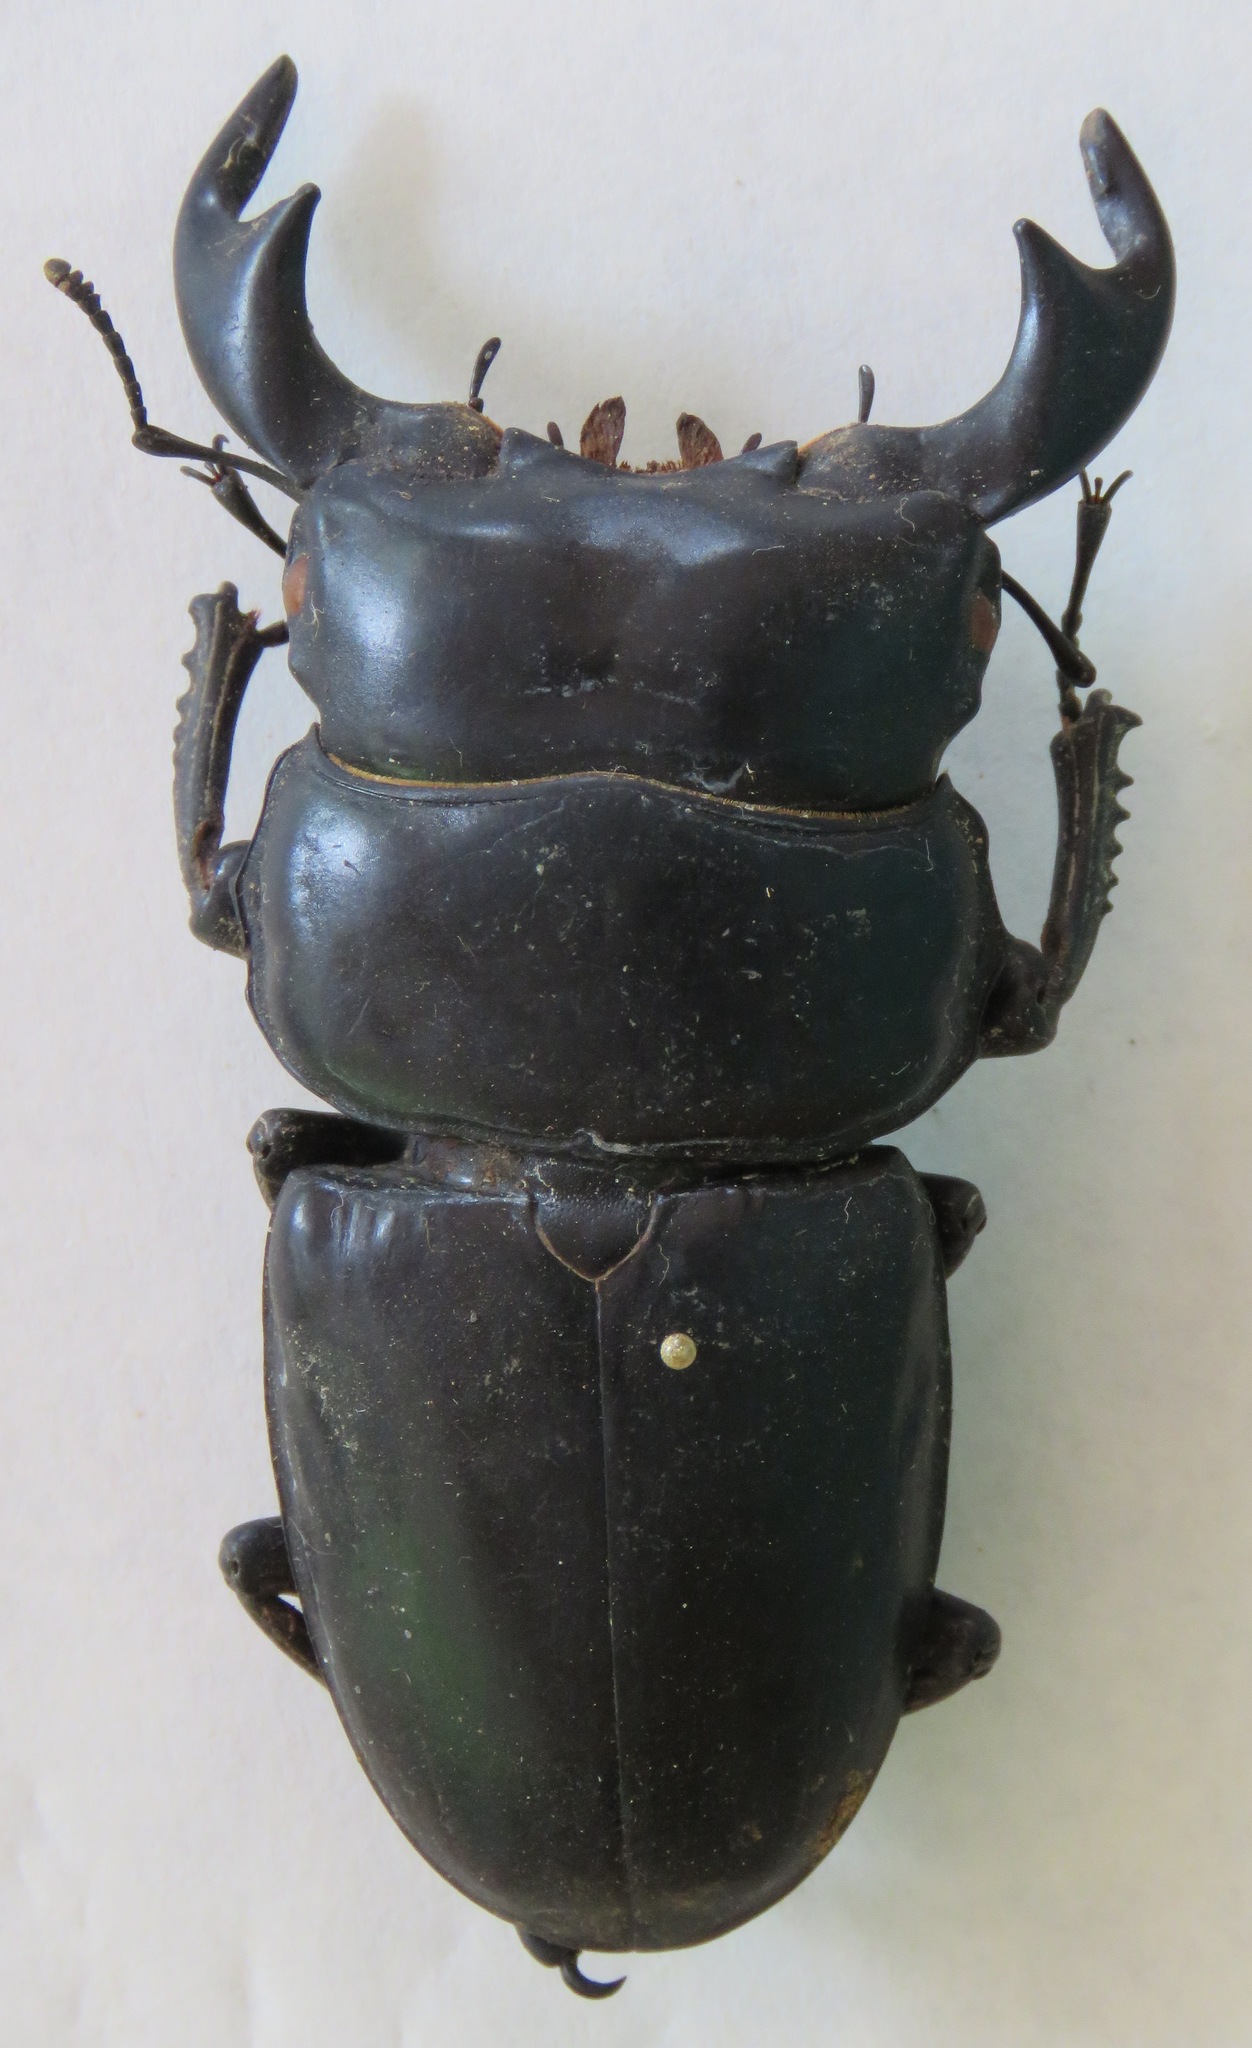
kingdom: Animalia
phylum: Arthropoda
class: Insecta
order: Coleoptera
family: Lucanidae
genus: Dorcus
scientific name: Dorcus antaeus
